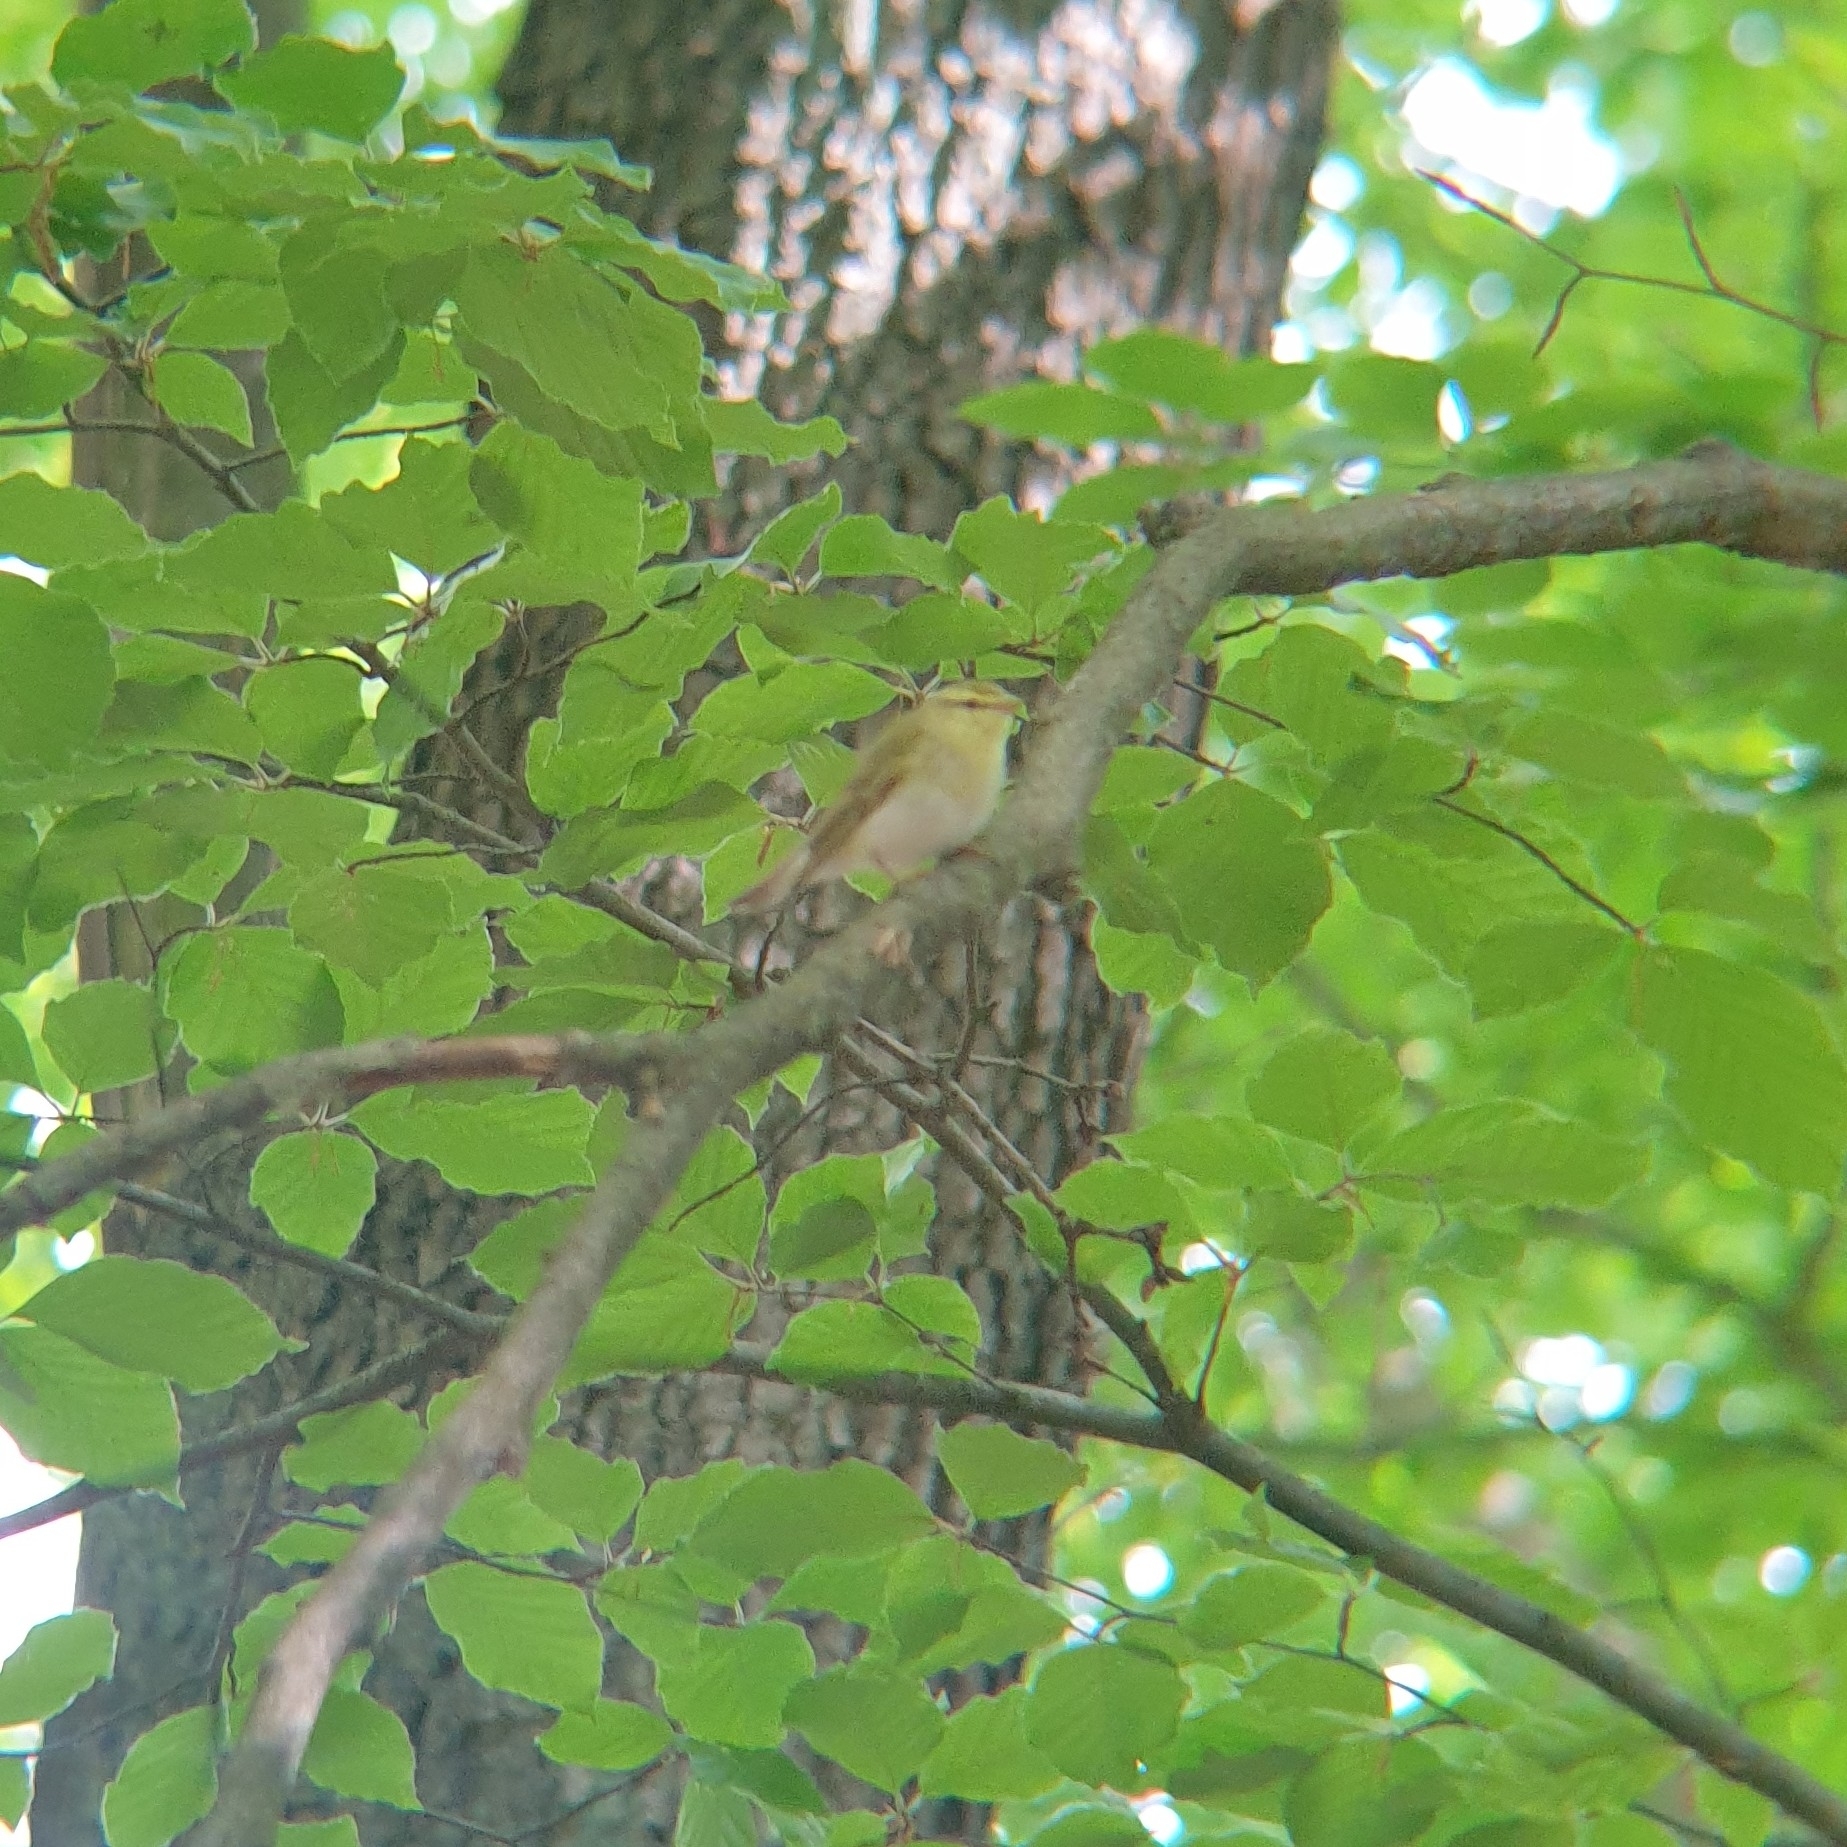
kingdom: Animalia
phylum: Chordata
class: Aves
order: Passeriformes
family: Phylloscopidae
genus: Phylloscopus
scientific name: Phylloscopus sibillatrix
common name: Wood warbler
